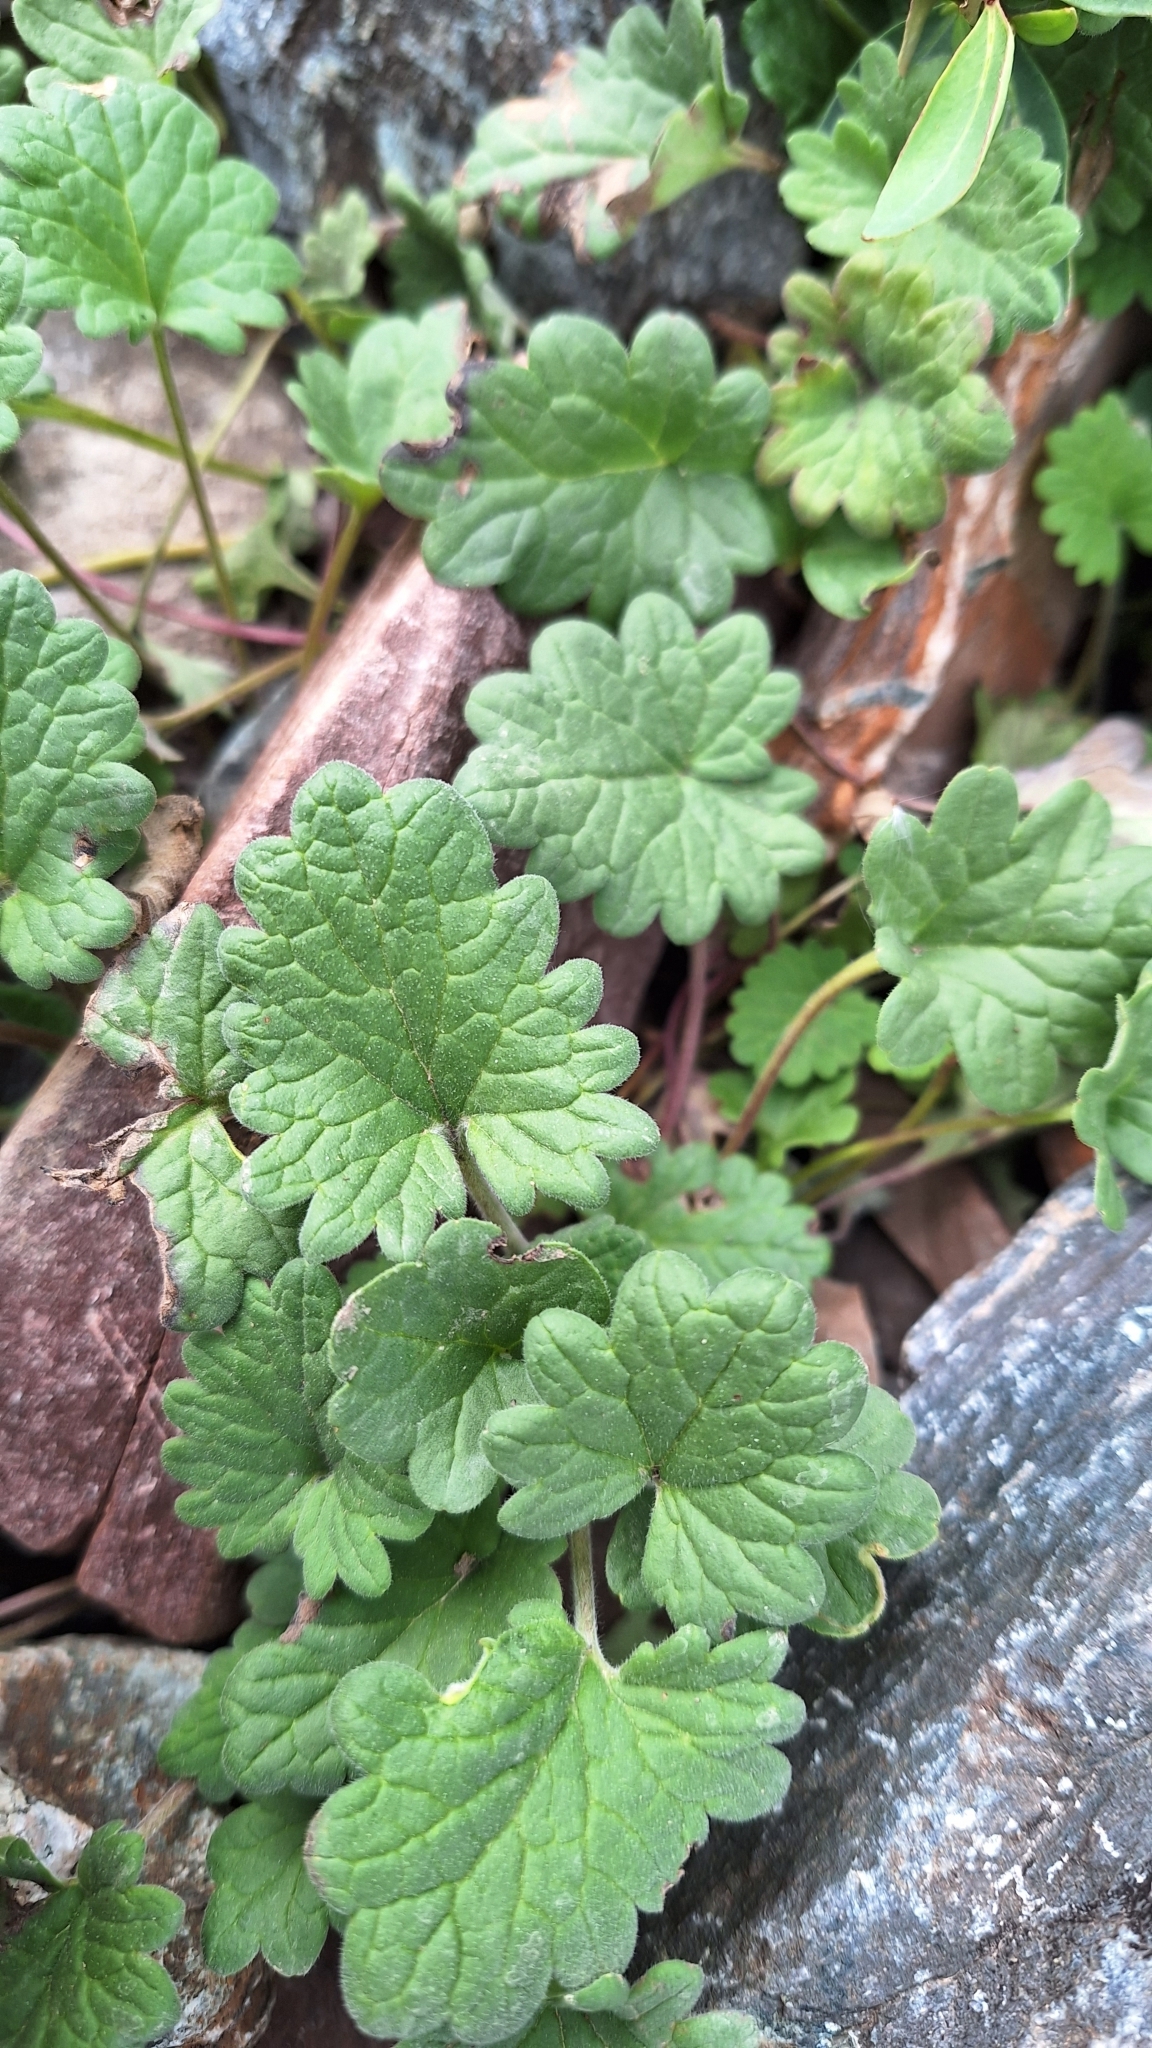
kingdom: Plantae
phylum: Tracheophyta
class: Magnoliopsida
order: Lamiales
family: Lamiaceae
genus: Dracocephalum
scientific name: Dracocephalum imberbe
